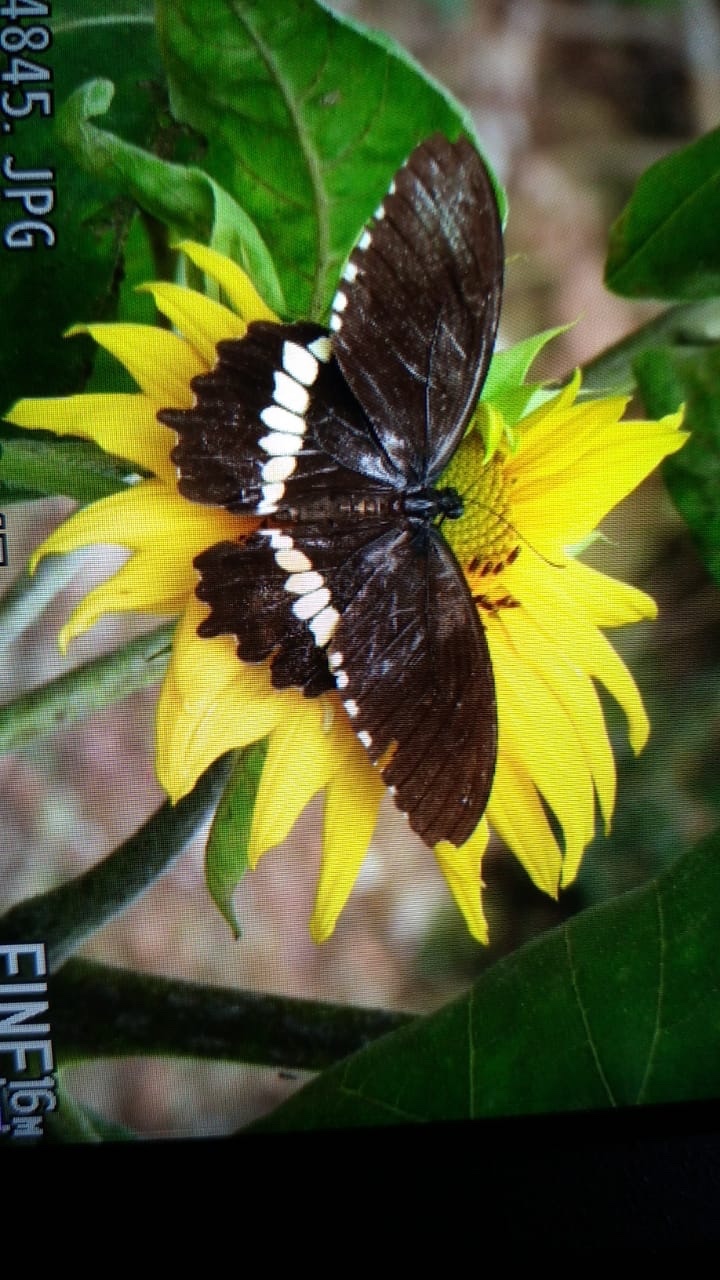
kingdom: Animalia
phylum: Arthropoda
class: Insecta
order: Lepidoptera
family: Papilionidae
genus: Papilio
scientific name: Papilio polytes
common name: Common mormon
